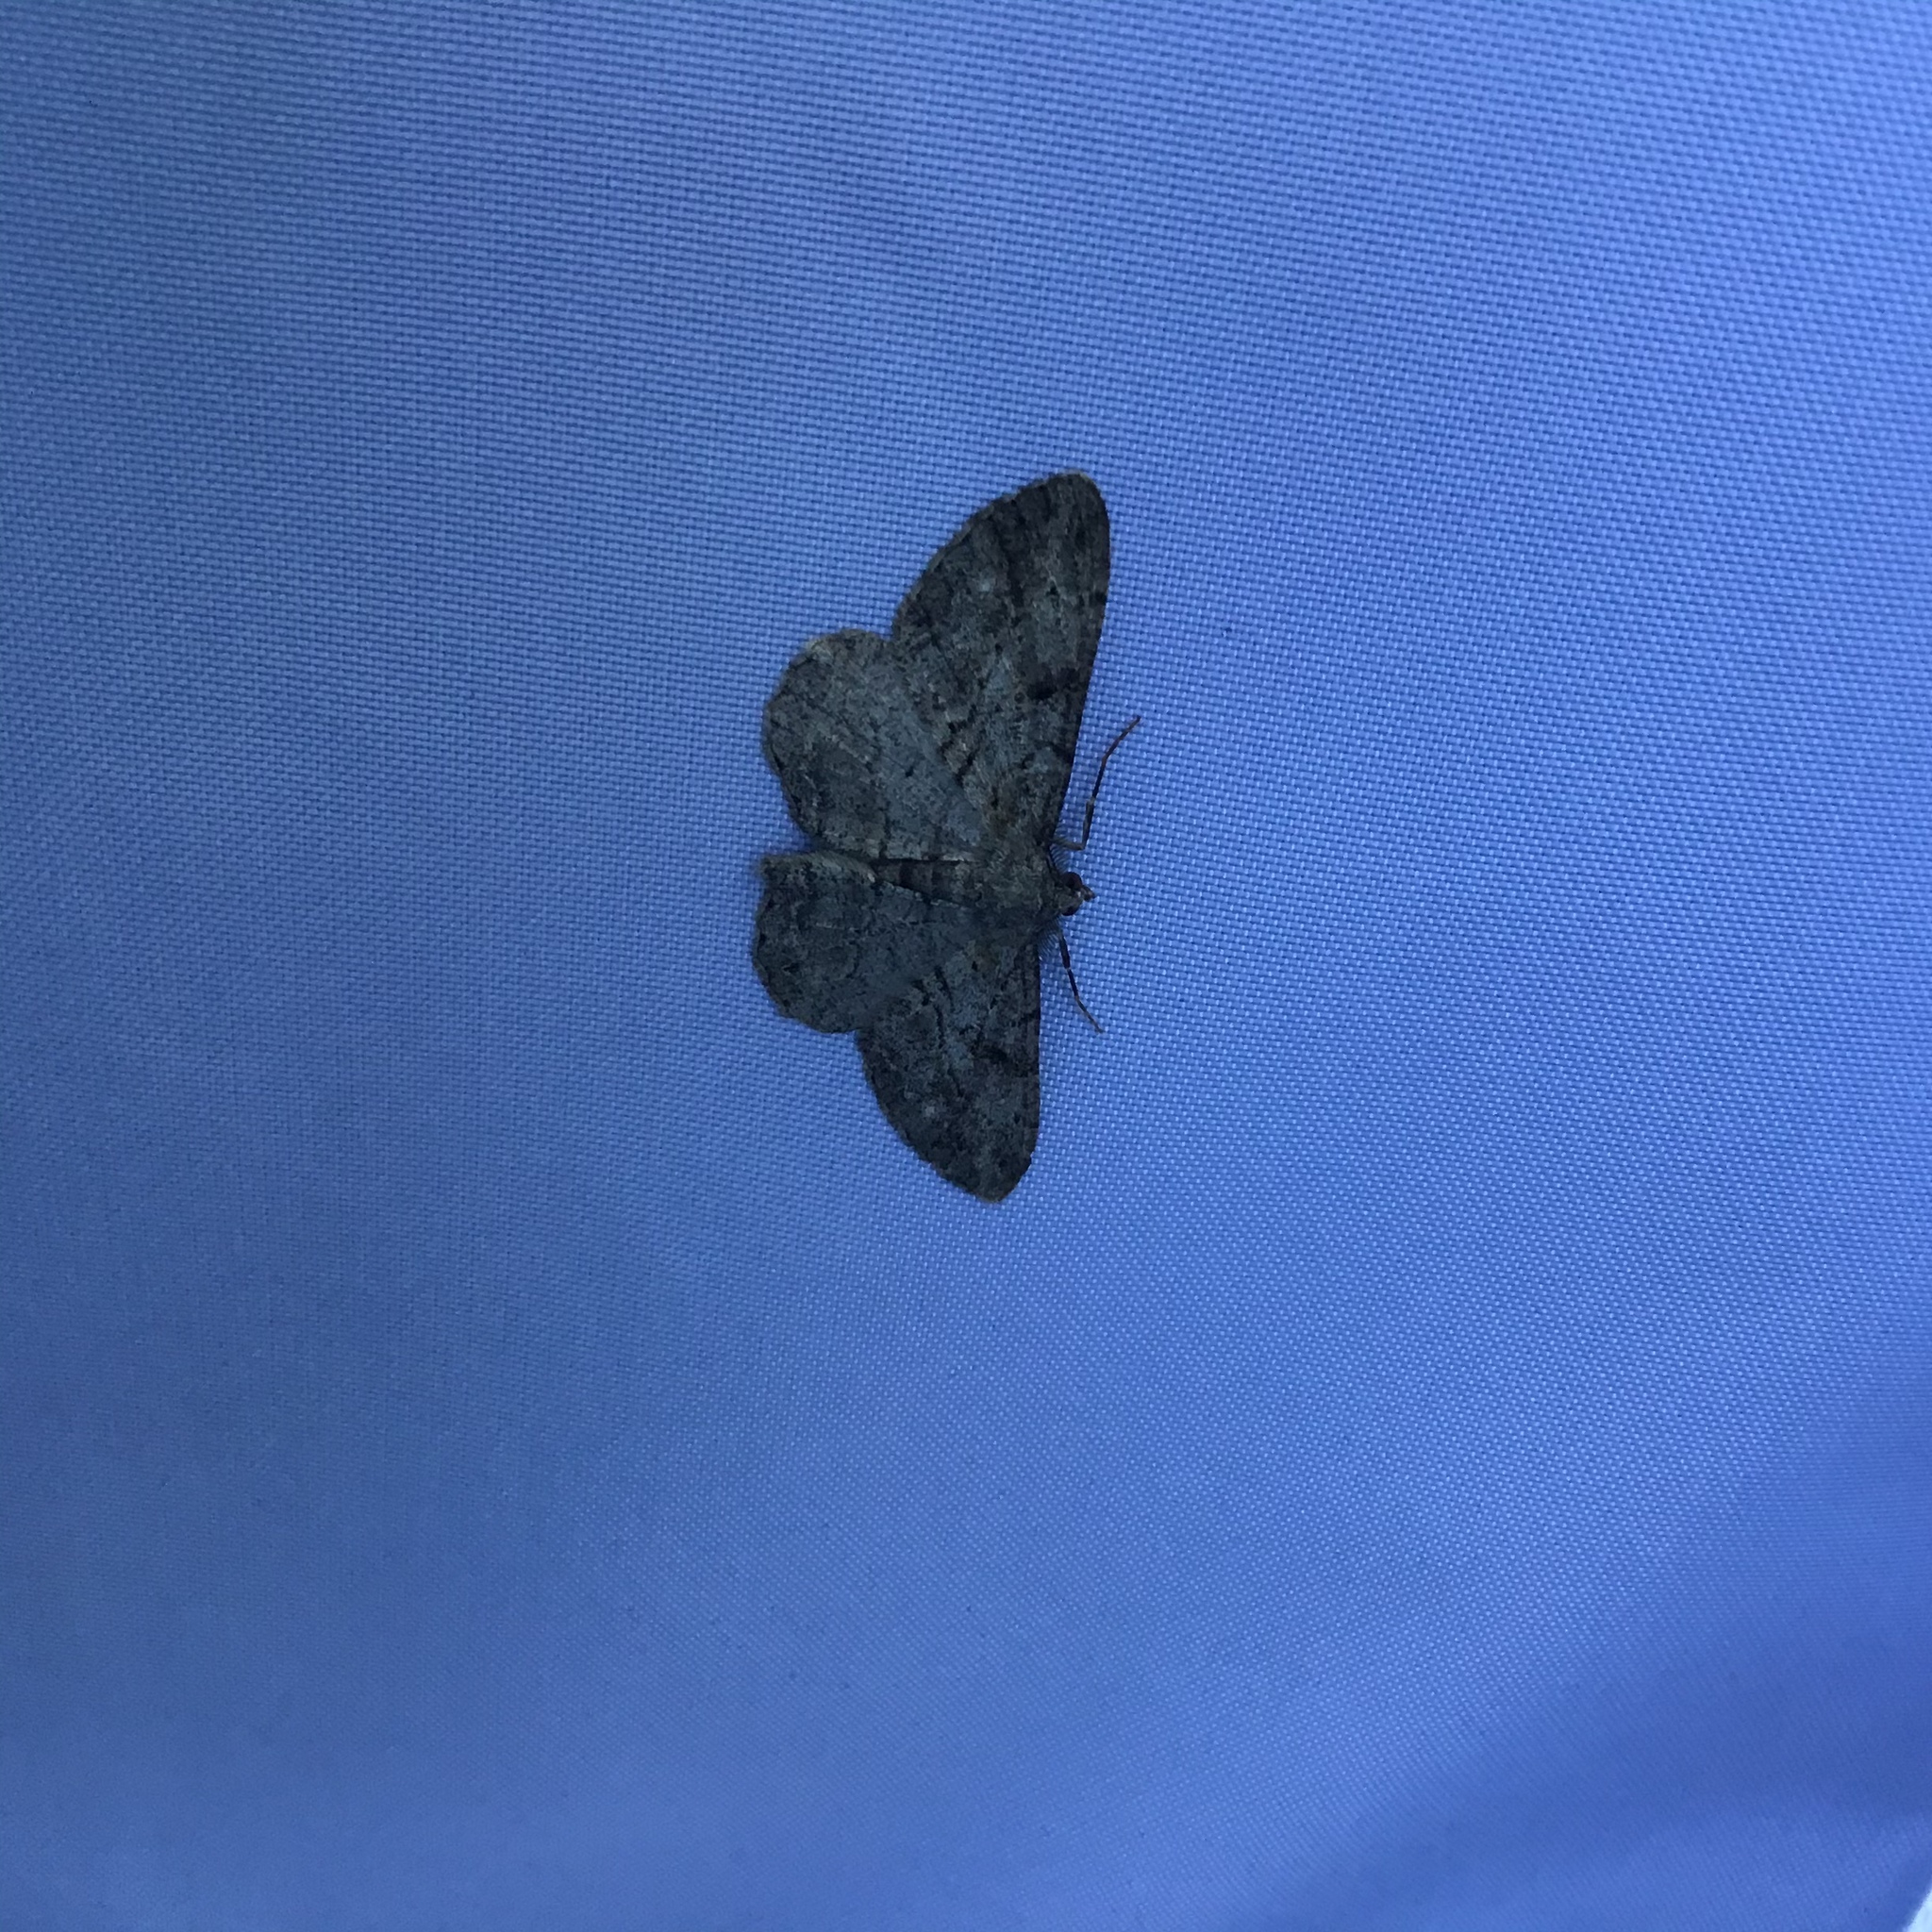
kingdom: Animalia
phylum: Arthropoda
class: Insecta
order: Lepidoptera
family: Geometridae
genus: Peribatodes
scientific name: Peribatodes rhomboidaria
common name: Willow beauty
